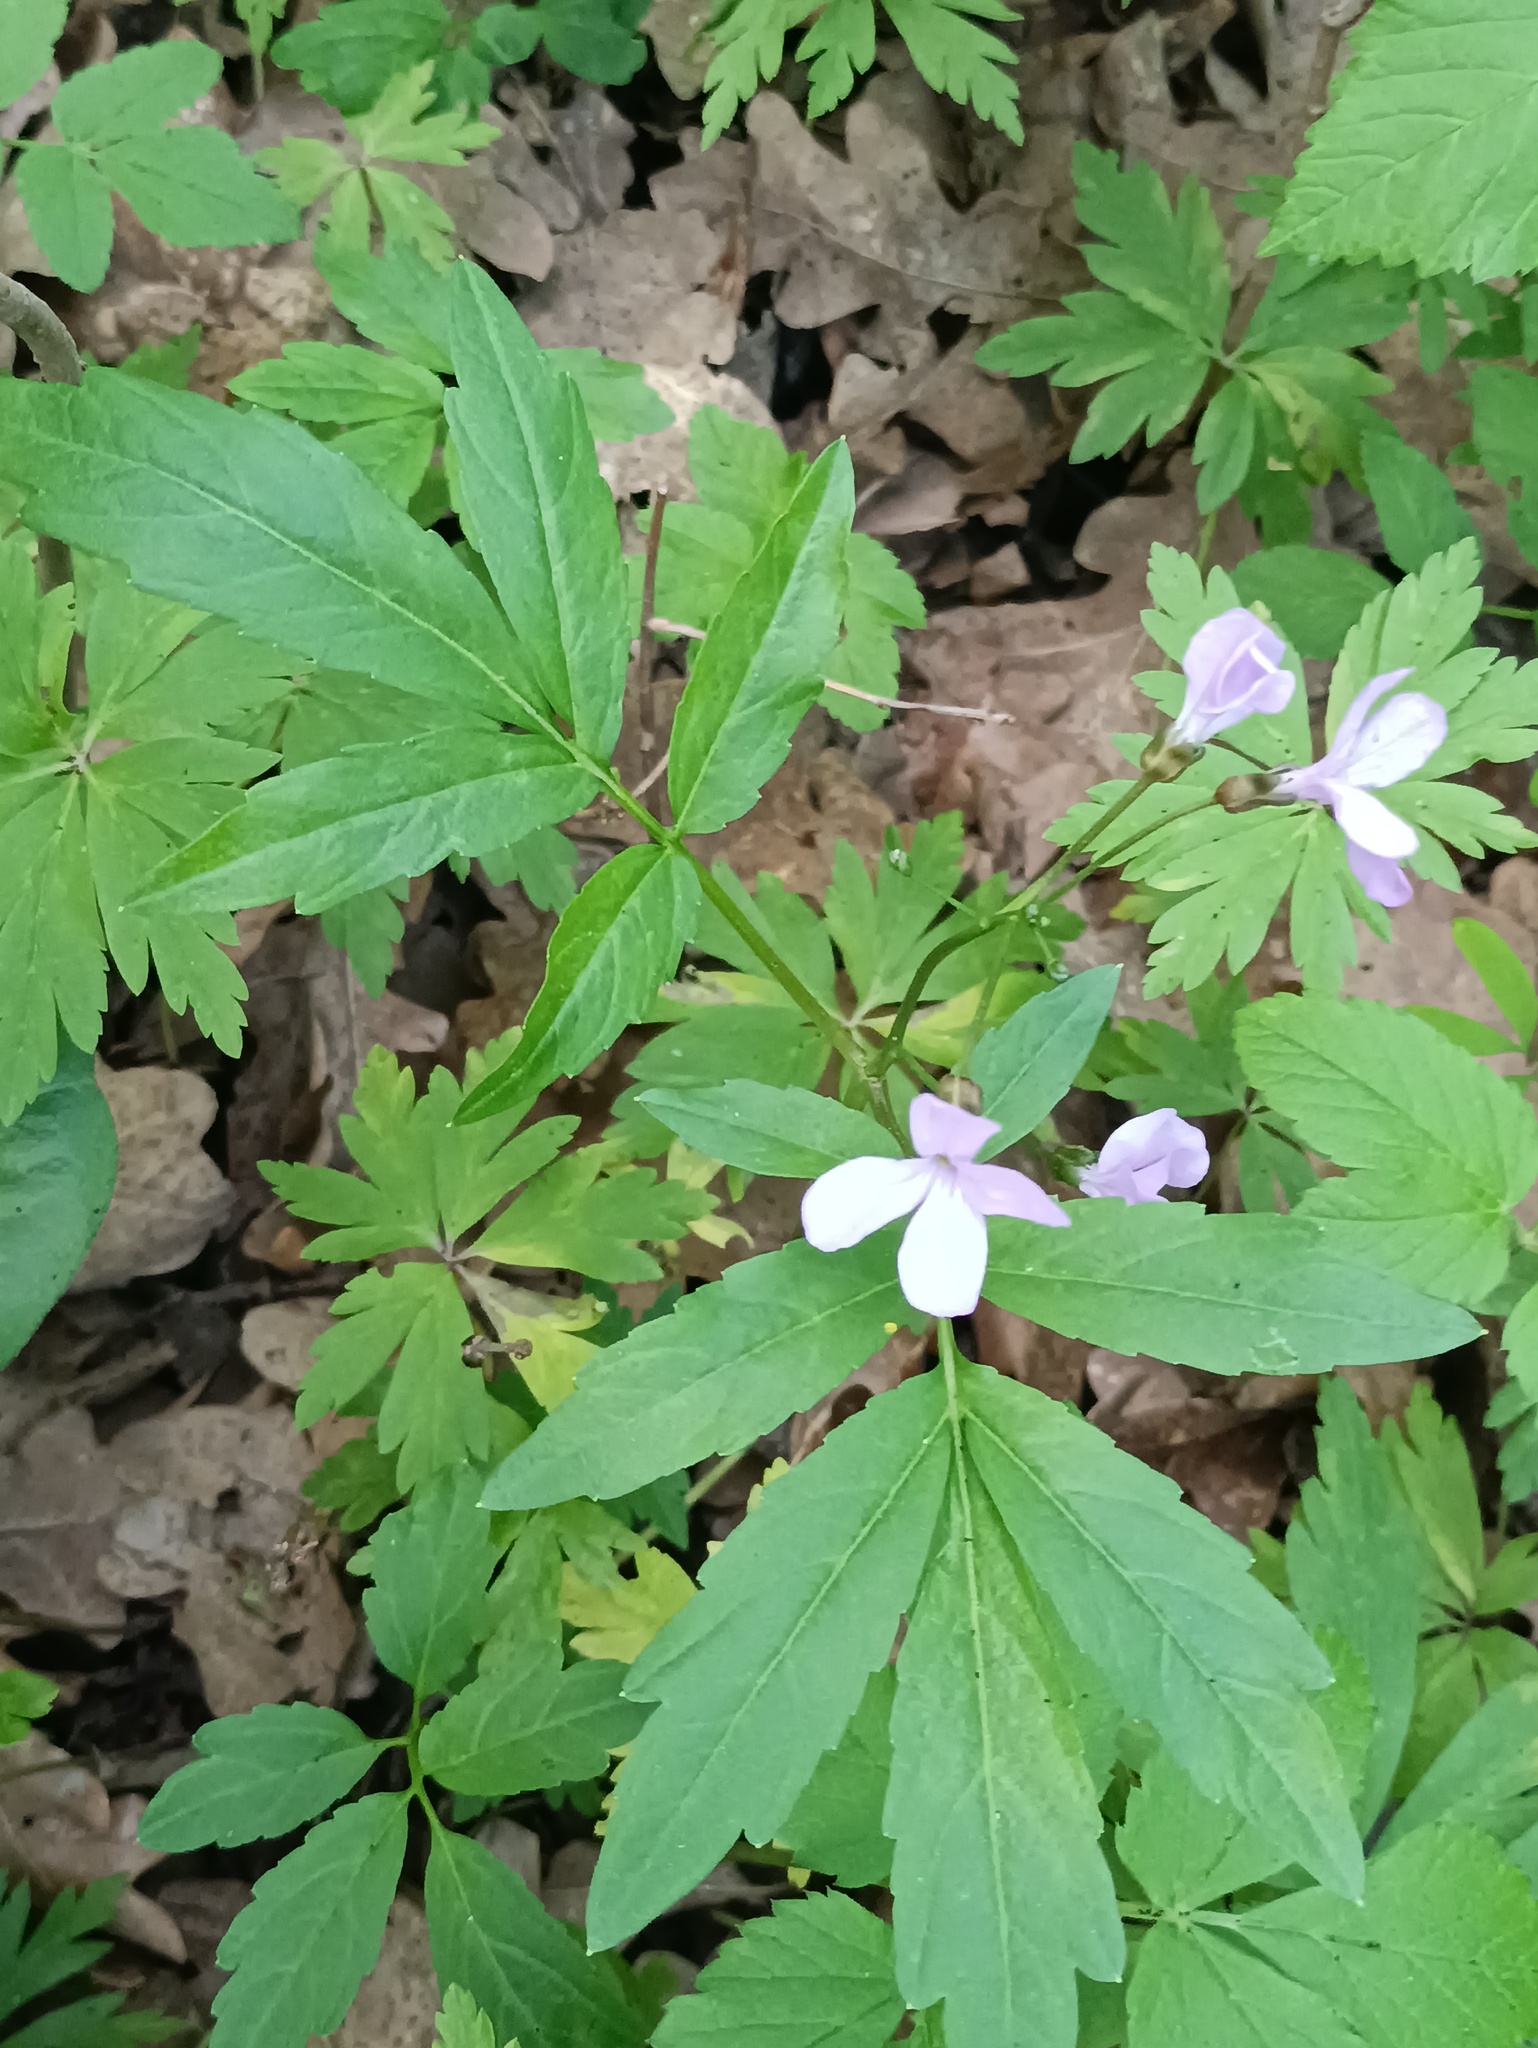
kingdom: Plantae
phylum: Tracheophyta
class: Magnoliopsida
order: Brassicales
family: Brassicaceae
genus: Cardamine
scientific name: Cardamine quinquefolia
